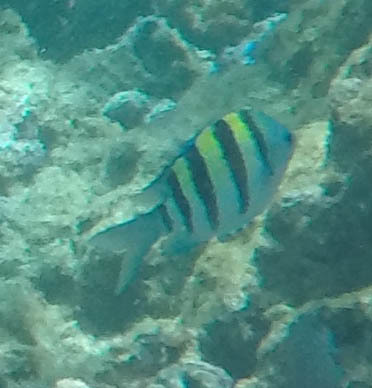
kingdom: Animalia
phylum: Chordata
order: Perciformes
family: Pomacentridae
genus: Abudefduf
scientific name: Abudefduf vaigiensis
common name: Indo-pacific sergeant
